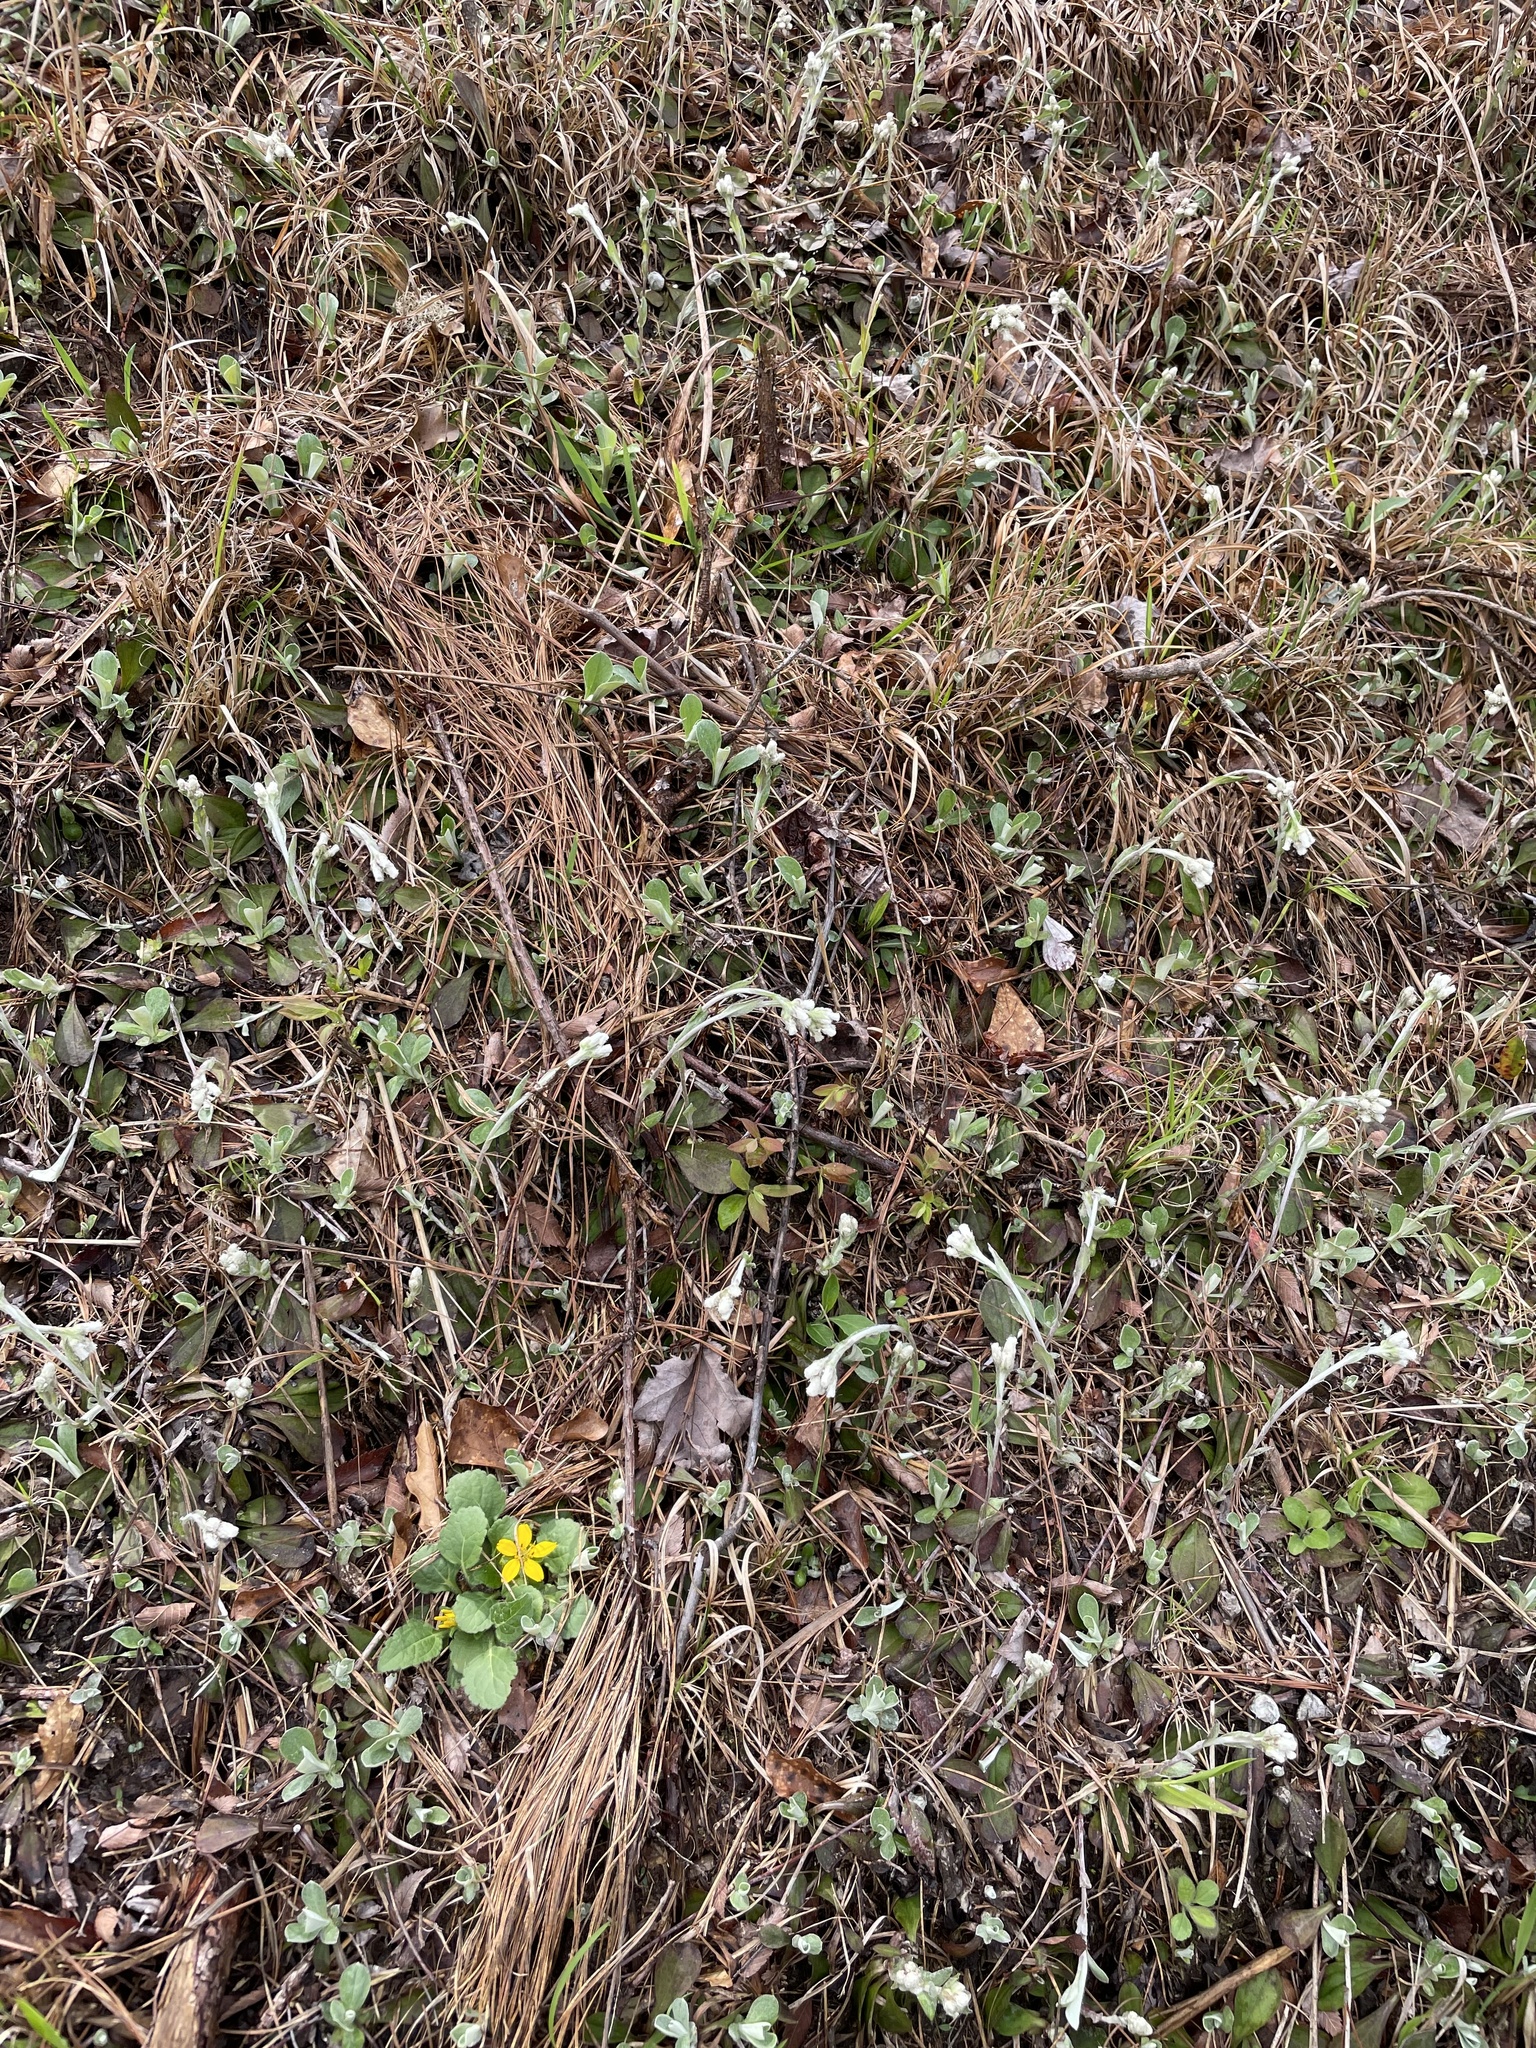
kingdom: Plantae
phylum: Tracheophyta
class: Magnoliopsida
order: Asterales
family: Asteraceae
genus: Antennaria
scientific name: Antennaria parlinii
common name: Parlin's pussytoes
